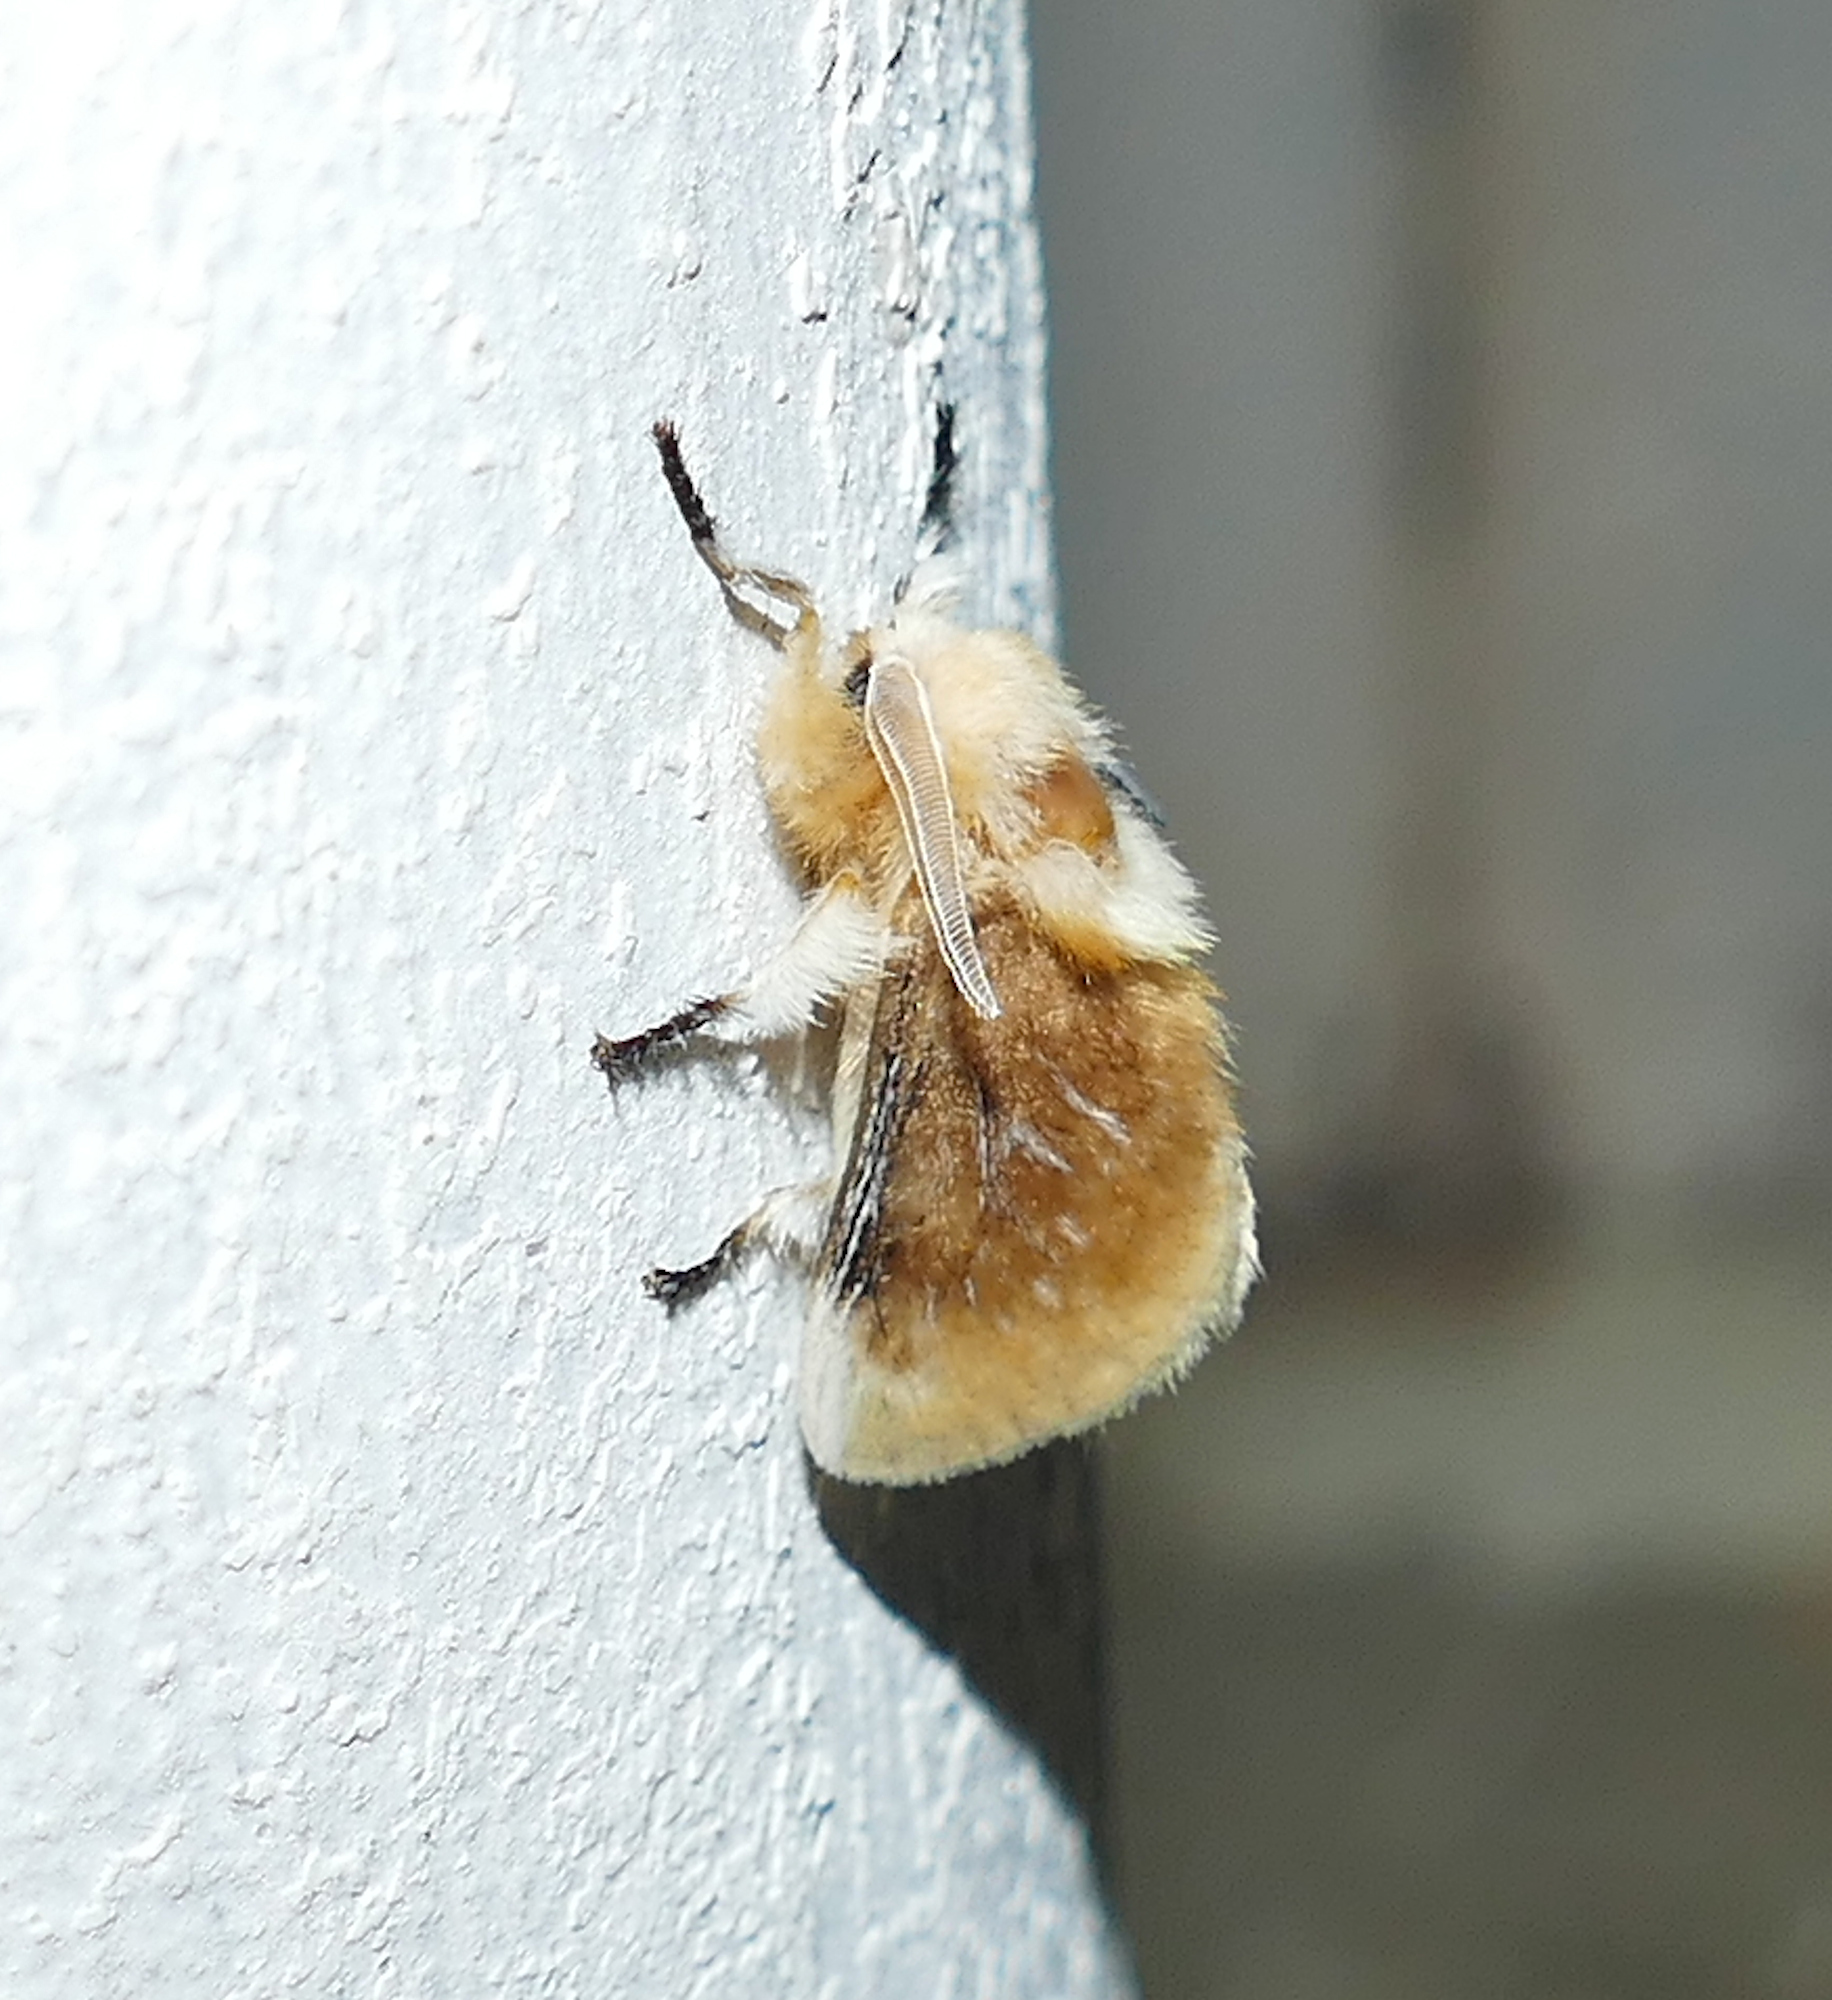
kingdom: Animalia
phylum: Arthropoda
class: Insecta
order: Lepidoptera
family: Megalopygidae
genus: Megalopyge
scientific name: Megalopyge opercularis
